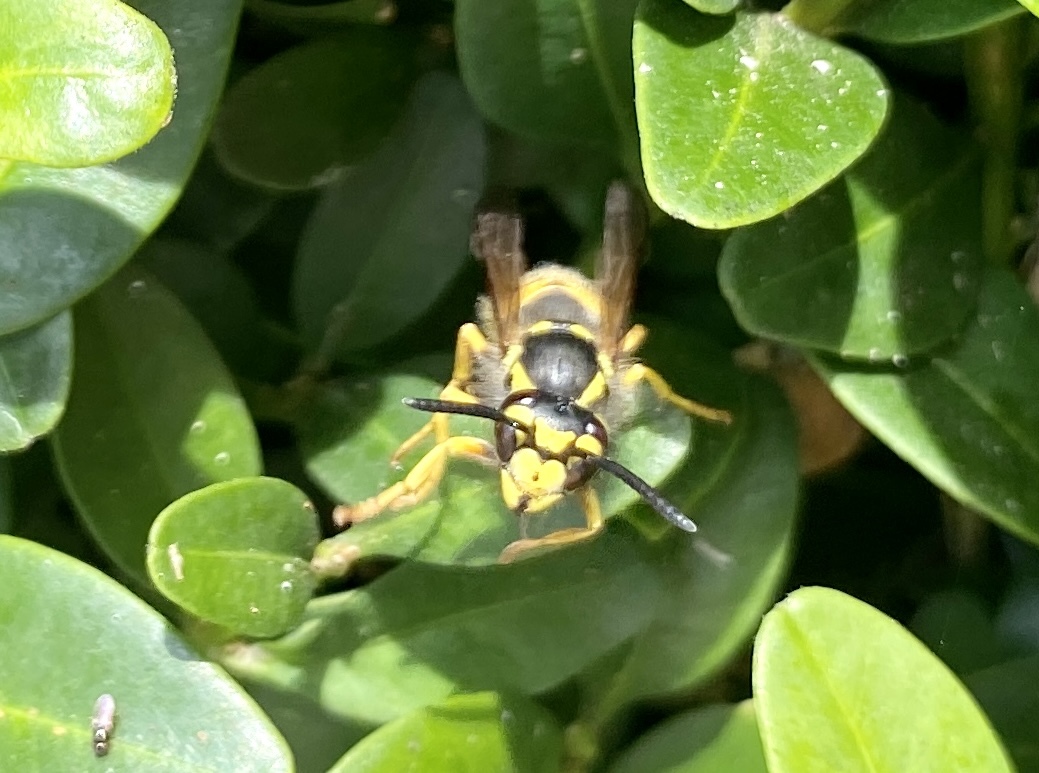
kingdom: Animalia
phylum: Arthropoda
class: Insecta
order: Hymenoptera
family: Vespidae
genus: Vespula
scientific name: Vespula germanica
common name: German wasp
